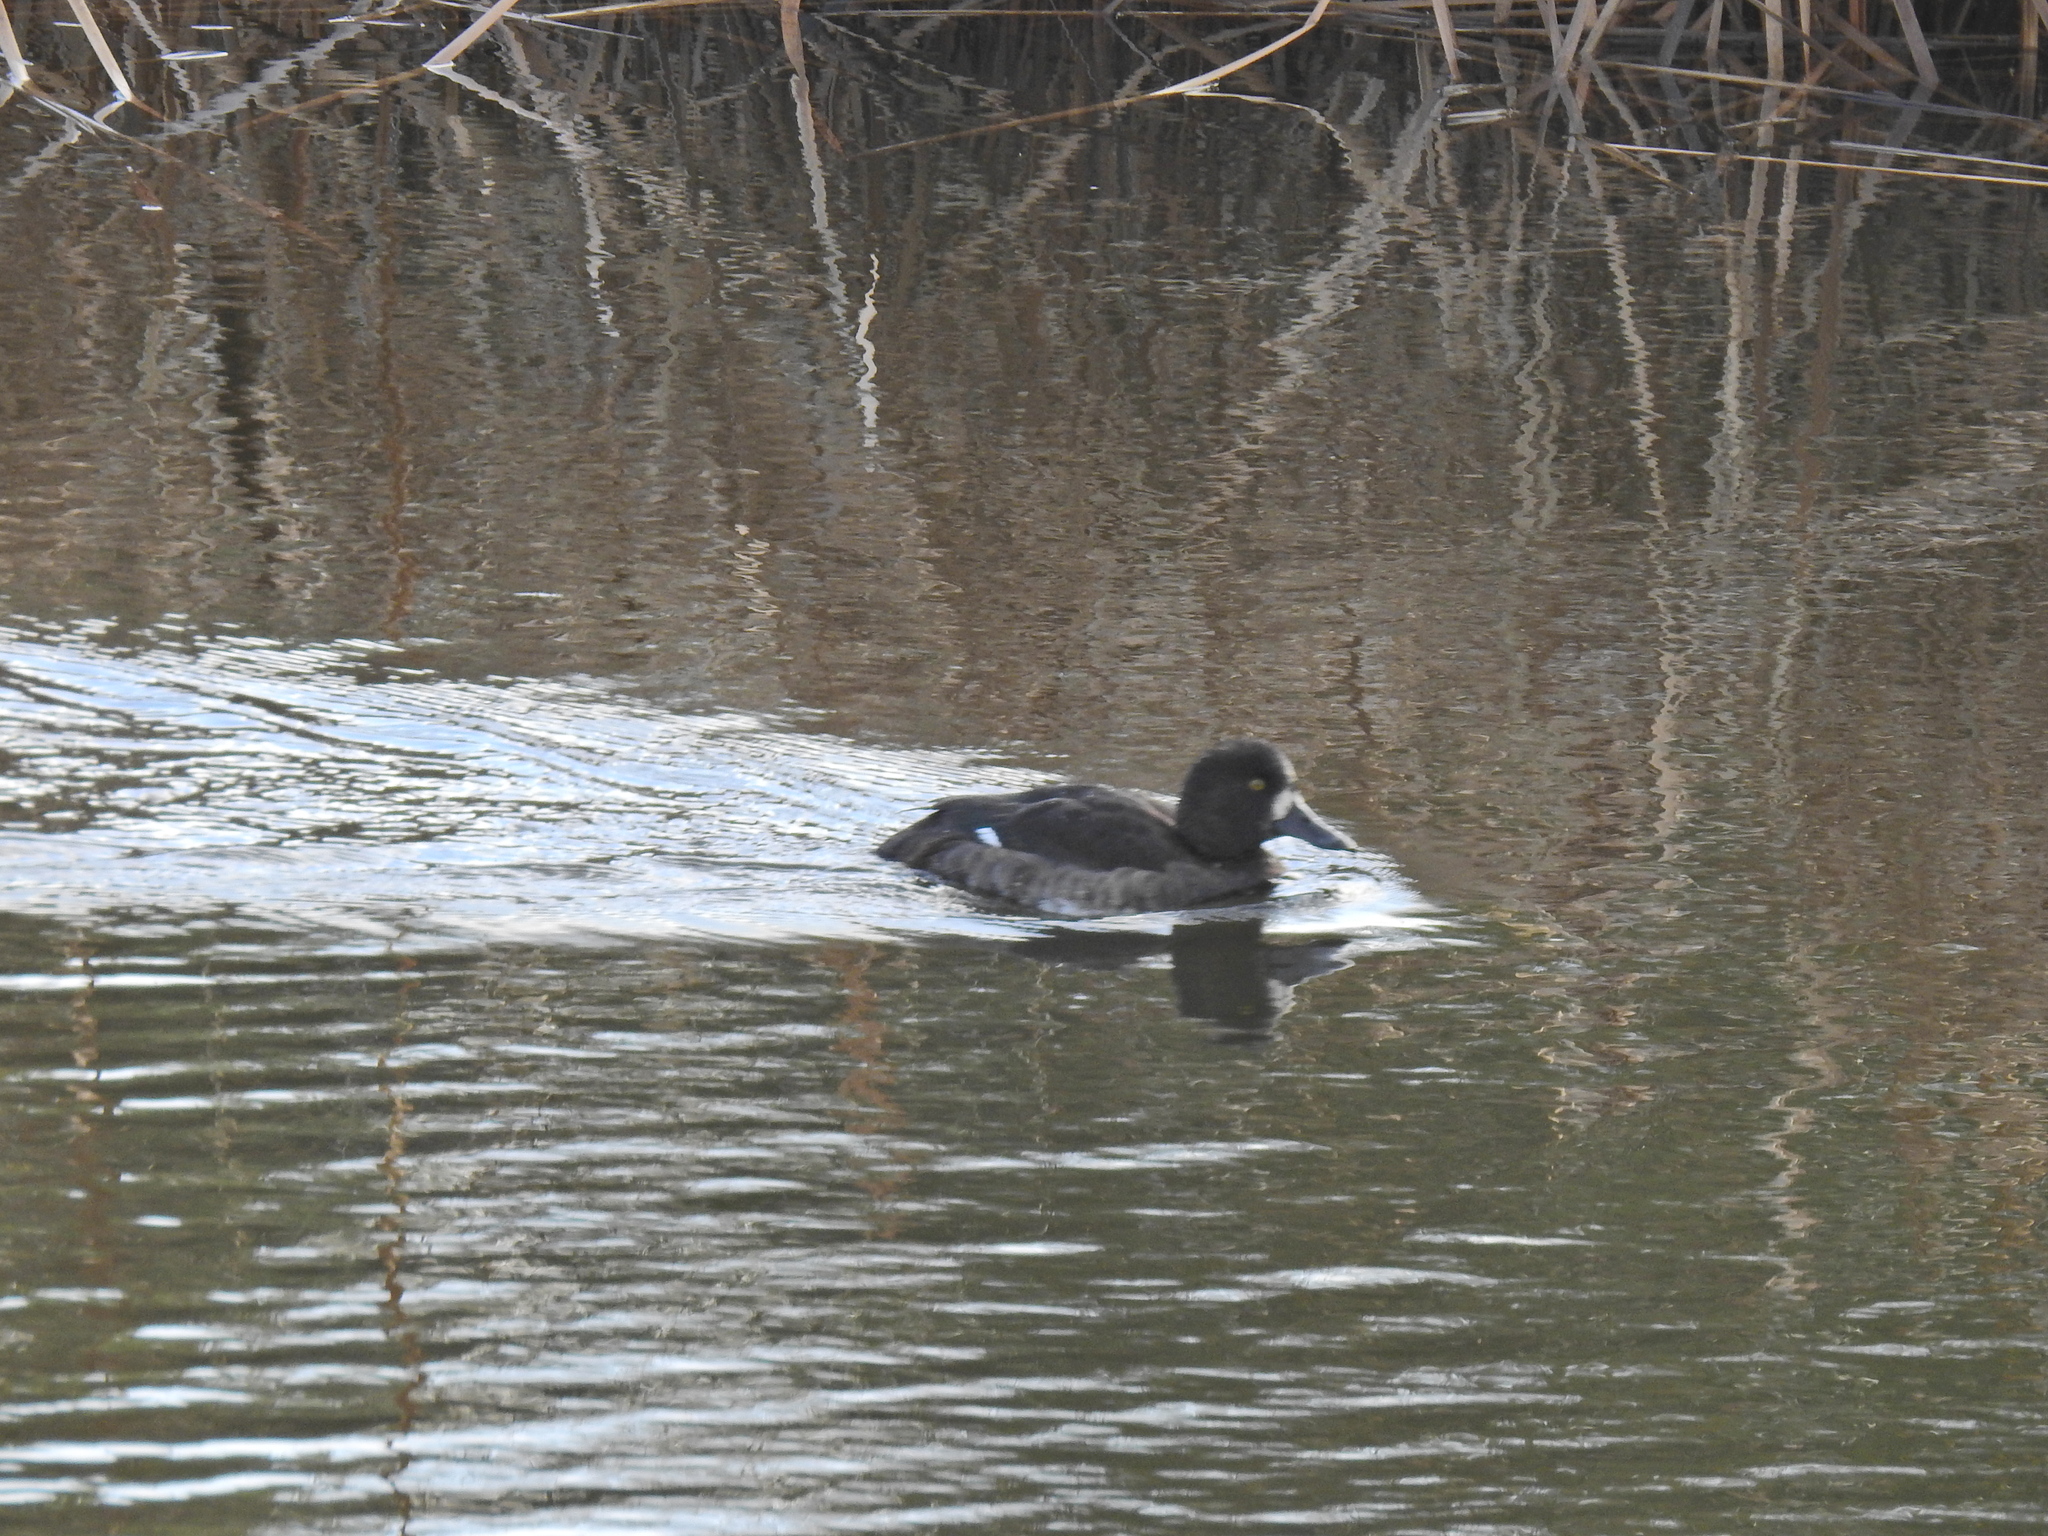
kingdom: Animalia
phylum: Chordata
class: Aves
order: Anseriformes
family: Anatidae
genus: Aythya
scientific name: Aythya fuligula
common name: Tufted duck
